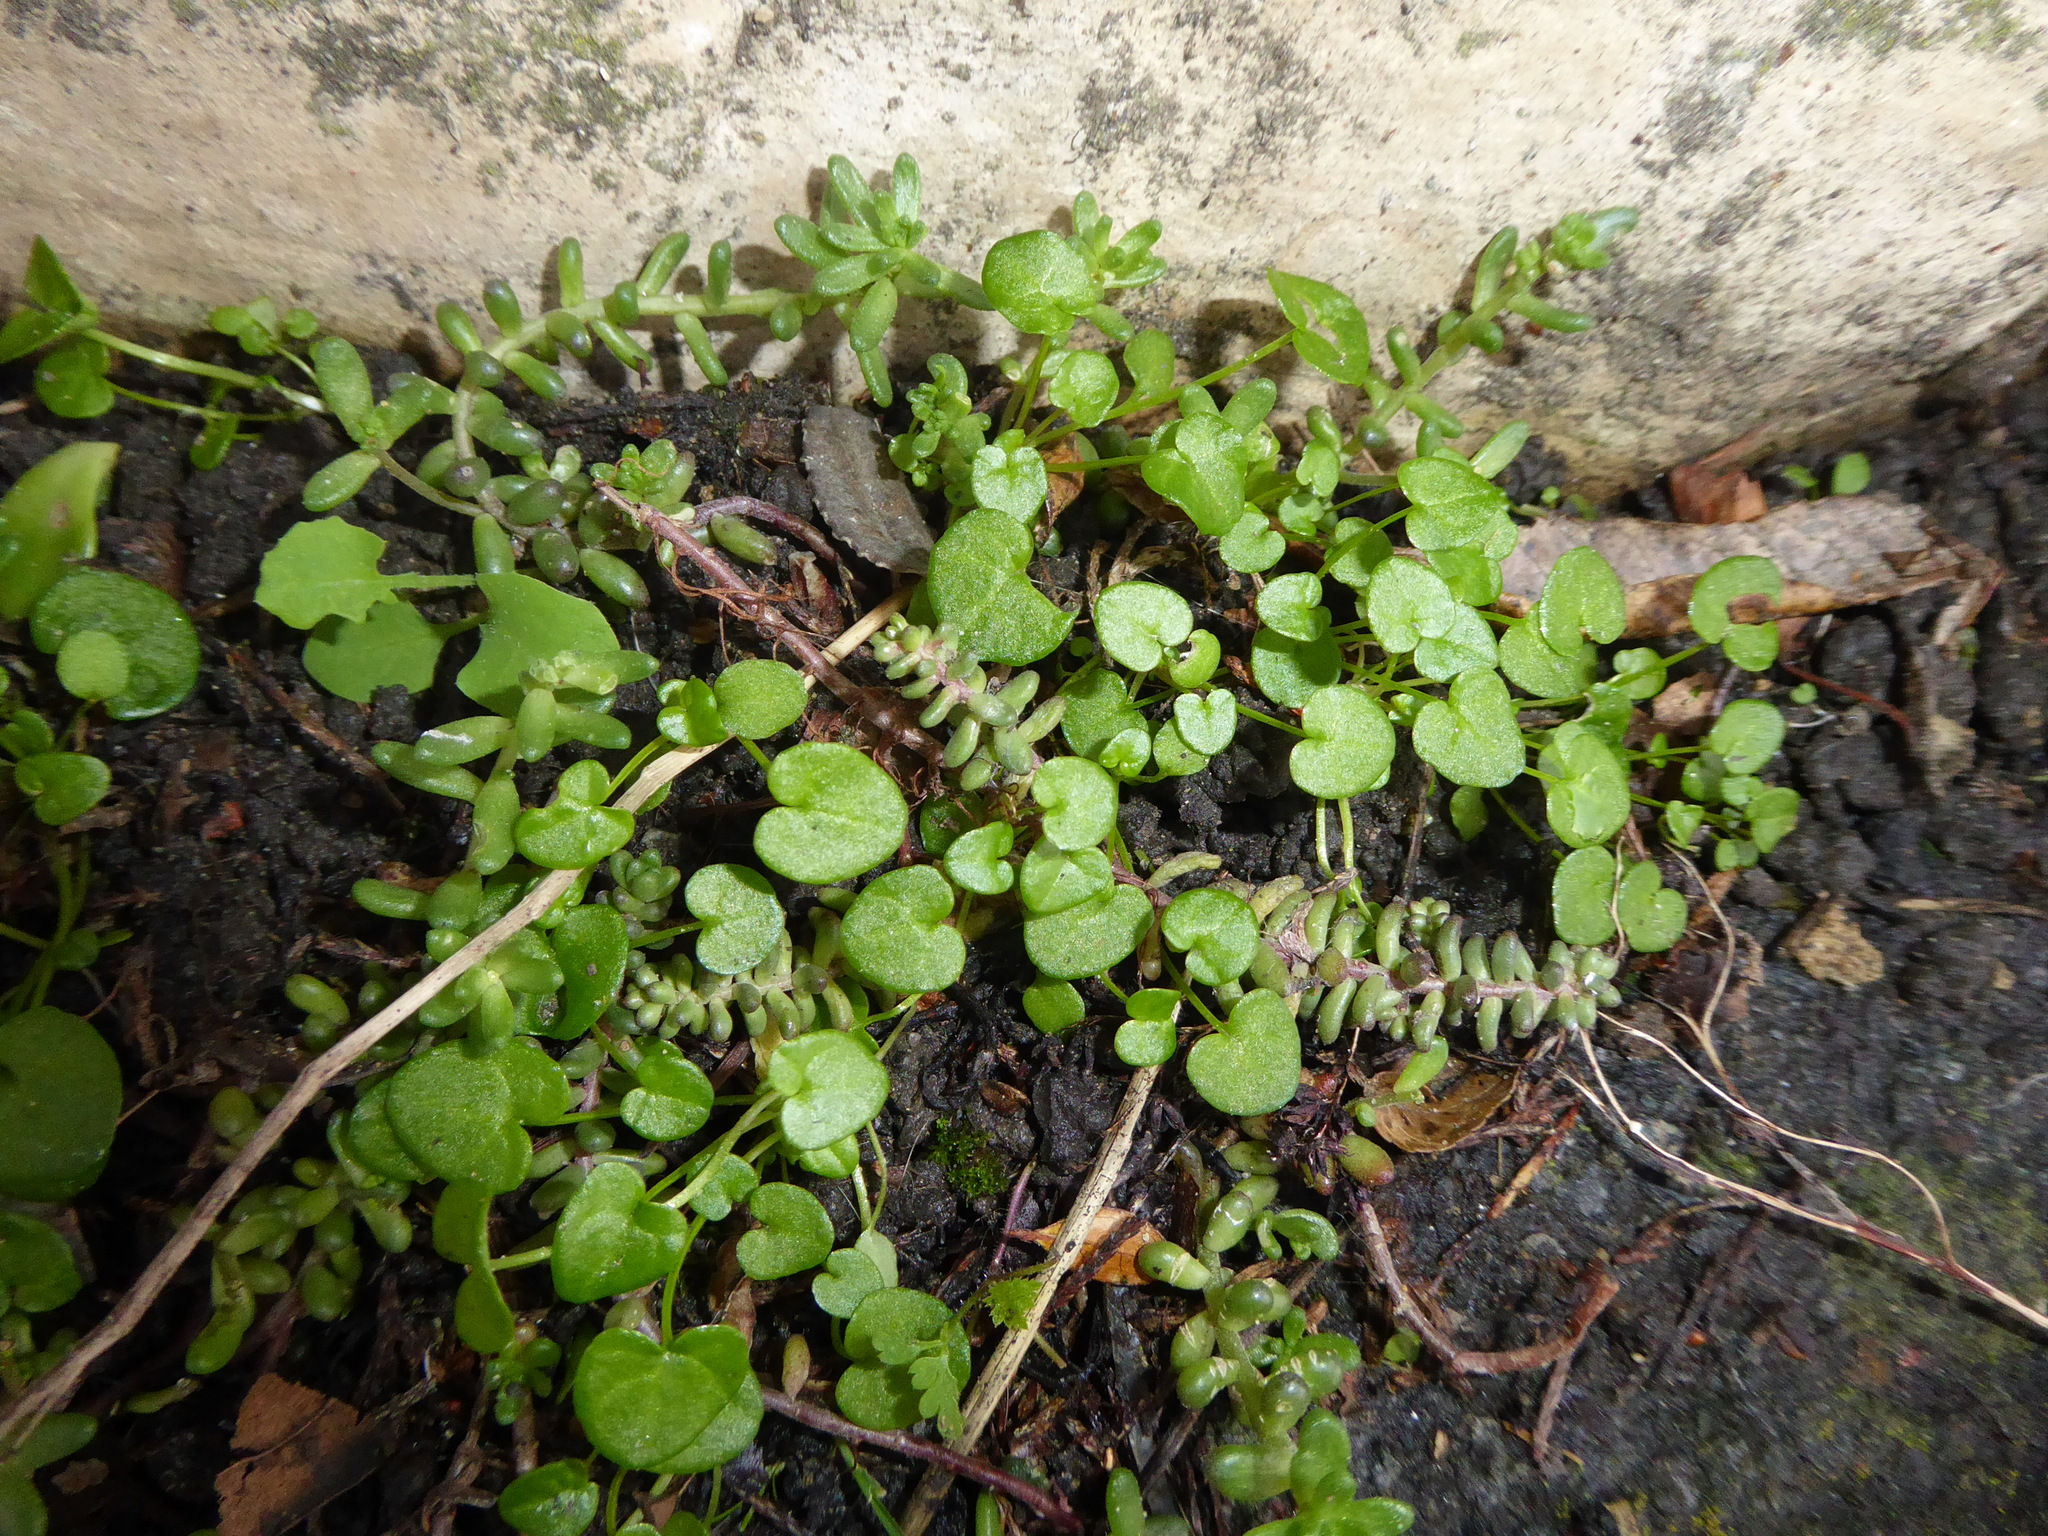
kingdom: Plantae
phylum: Tracheophyta
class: Magnoliopsida
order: Brassicales
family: Brassicaceae
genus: Cochlearia
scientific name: Cochlearia danica
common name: Early scurvygrass
